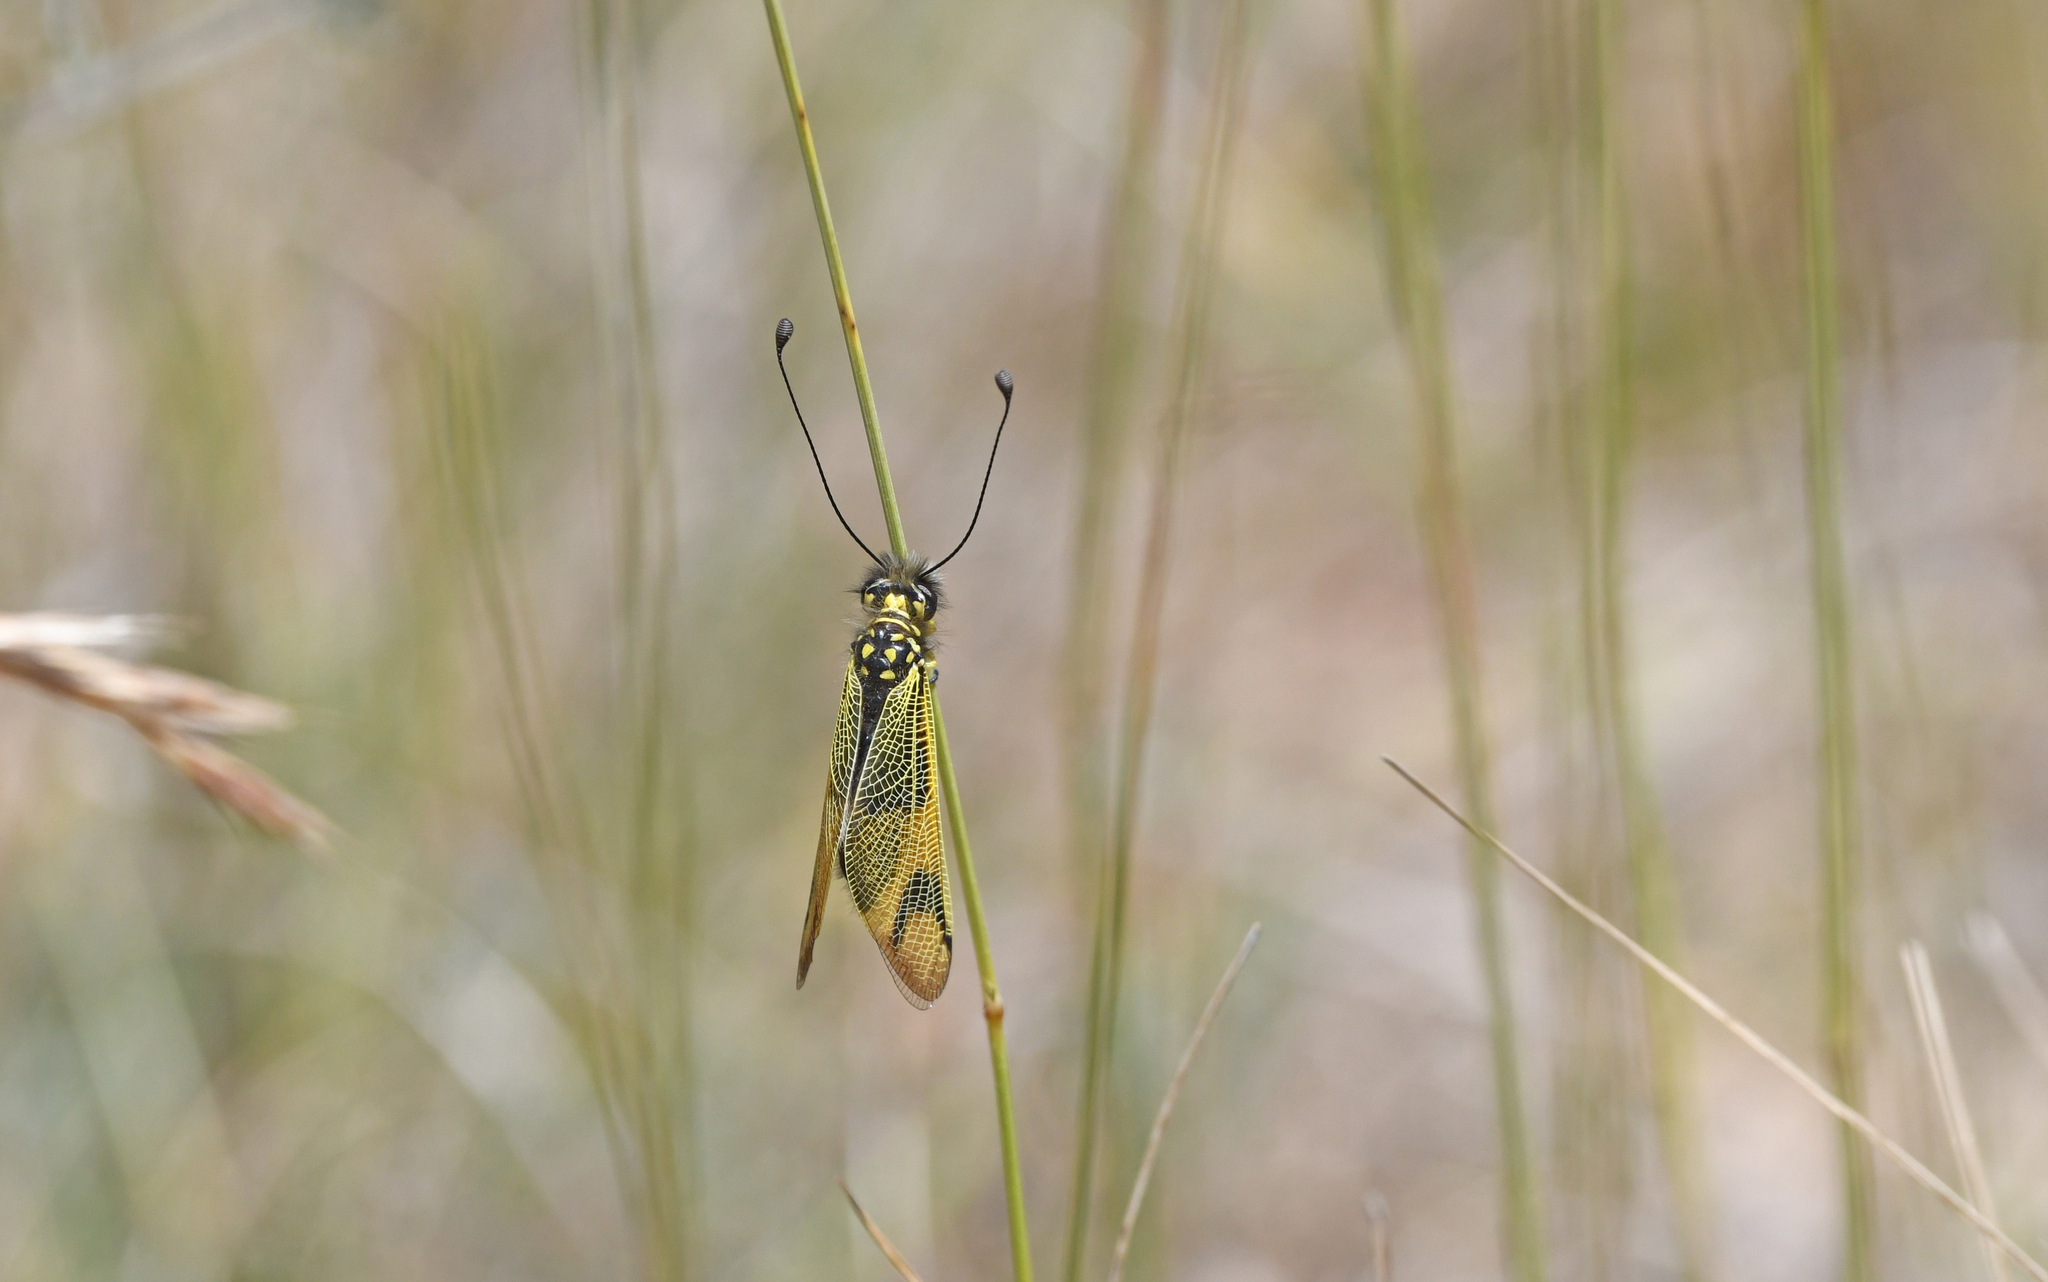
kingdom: Animalia
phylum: Arthropoda
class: Insecta
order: Neuroptera
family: Ascalaphidae
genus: Libelloides
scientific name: Libelloides longicornis
